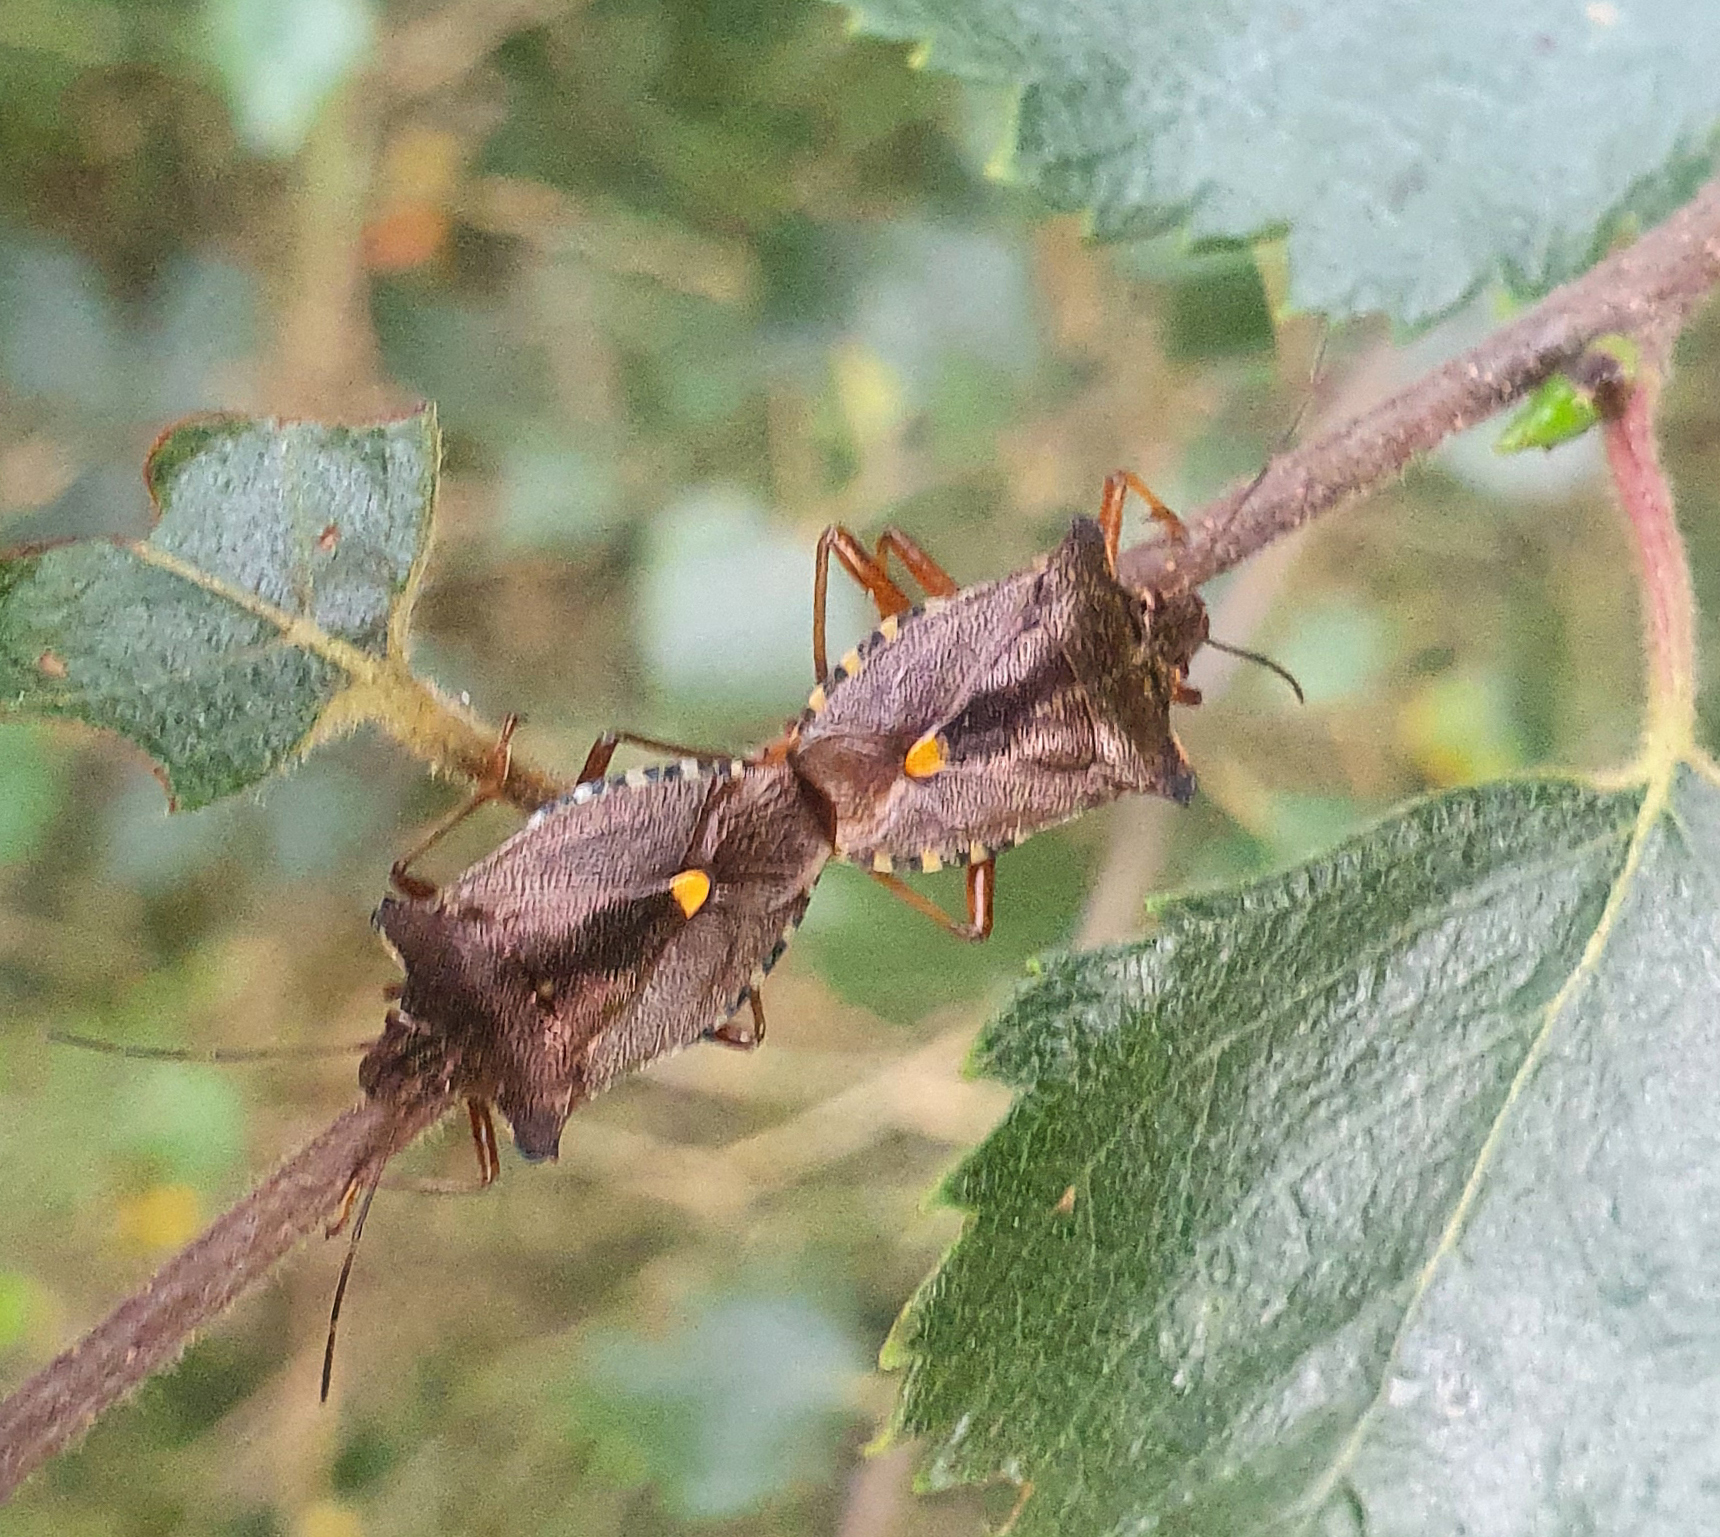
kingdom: Animalia
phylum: Arthropoda
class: Insecta
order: Hemiptera
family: Pentatomidae
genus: Pentatoma
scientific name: Pentatoma rufipes
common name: Forest bug
